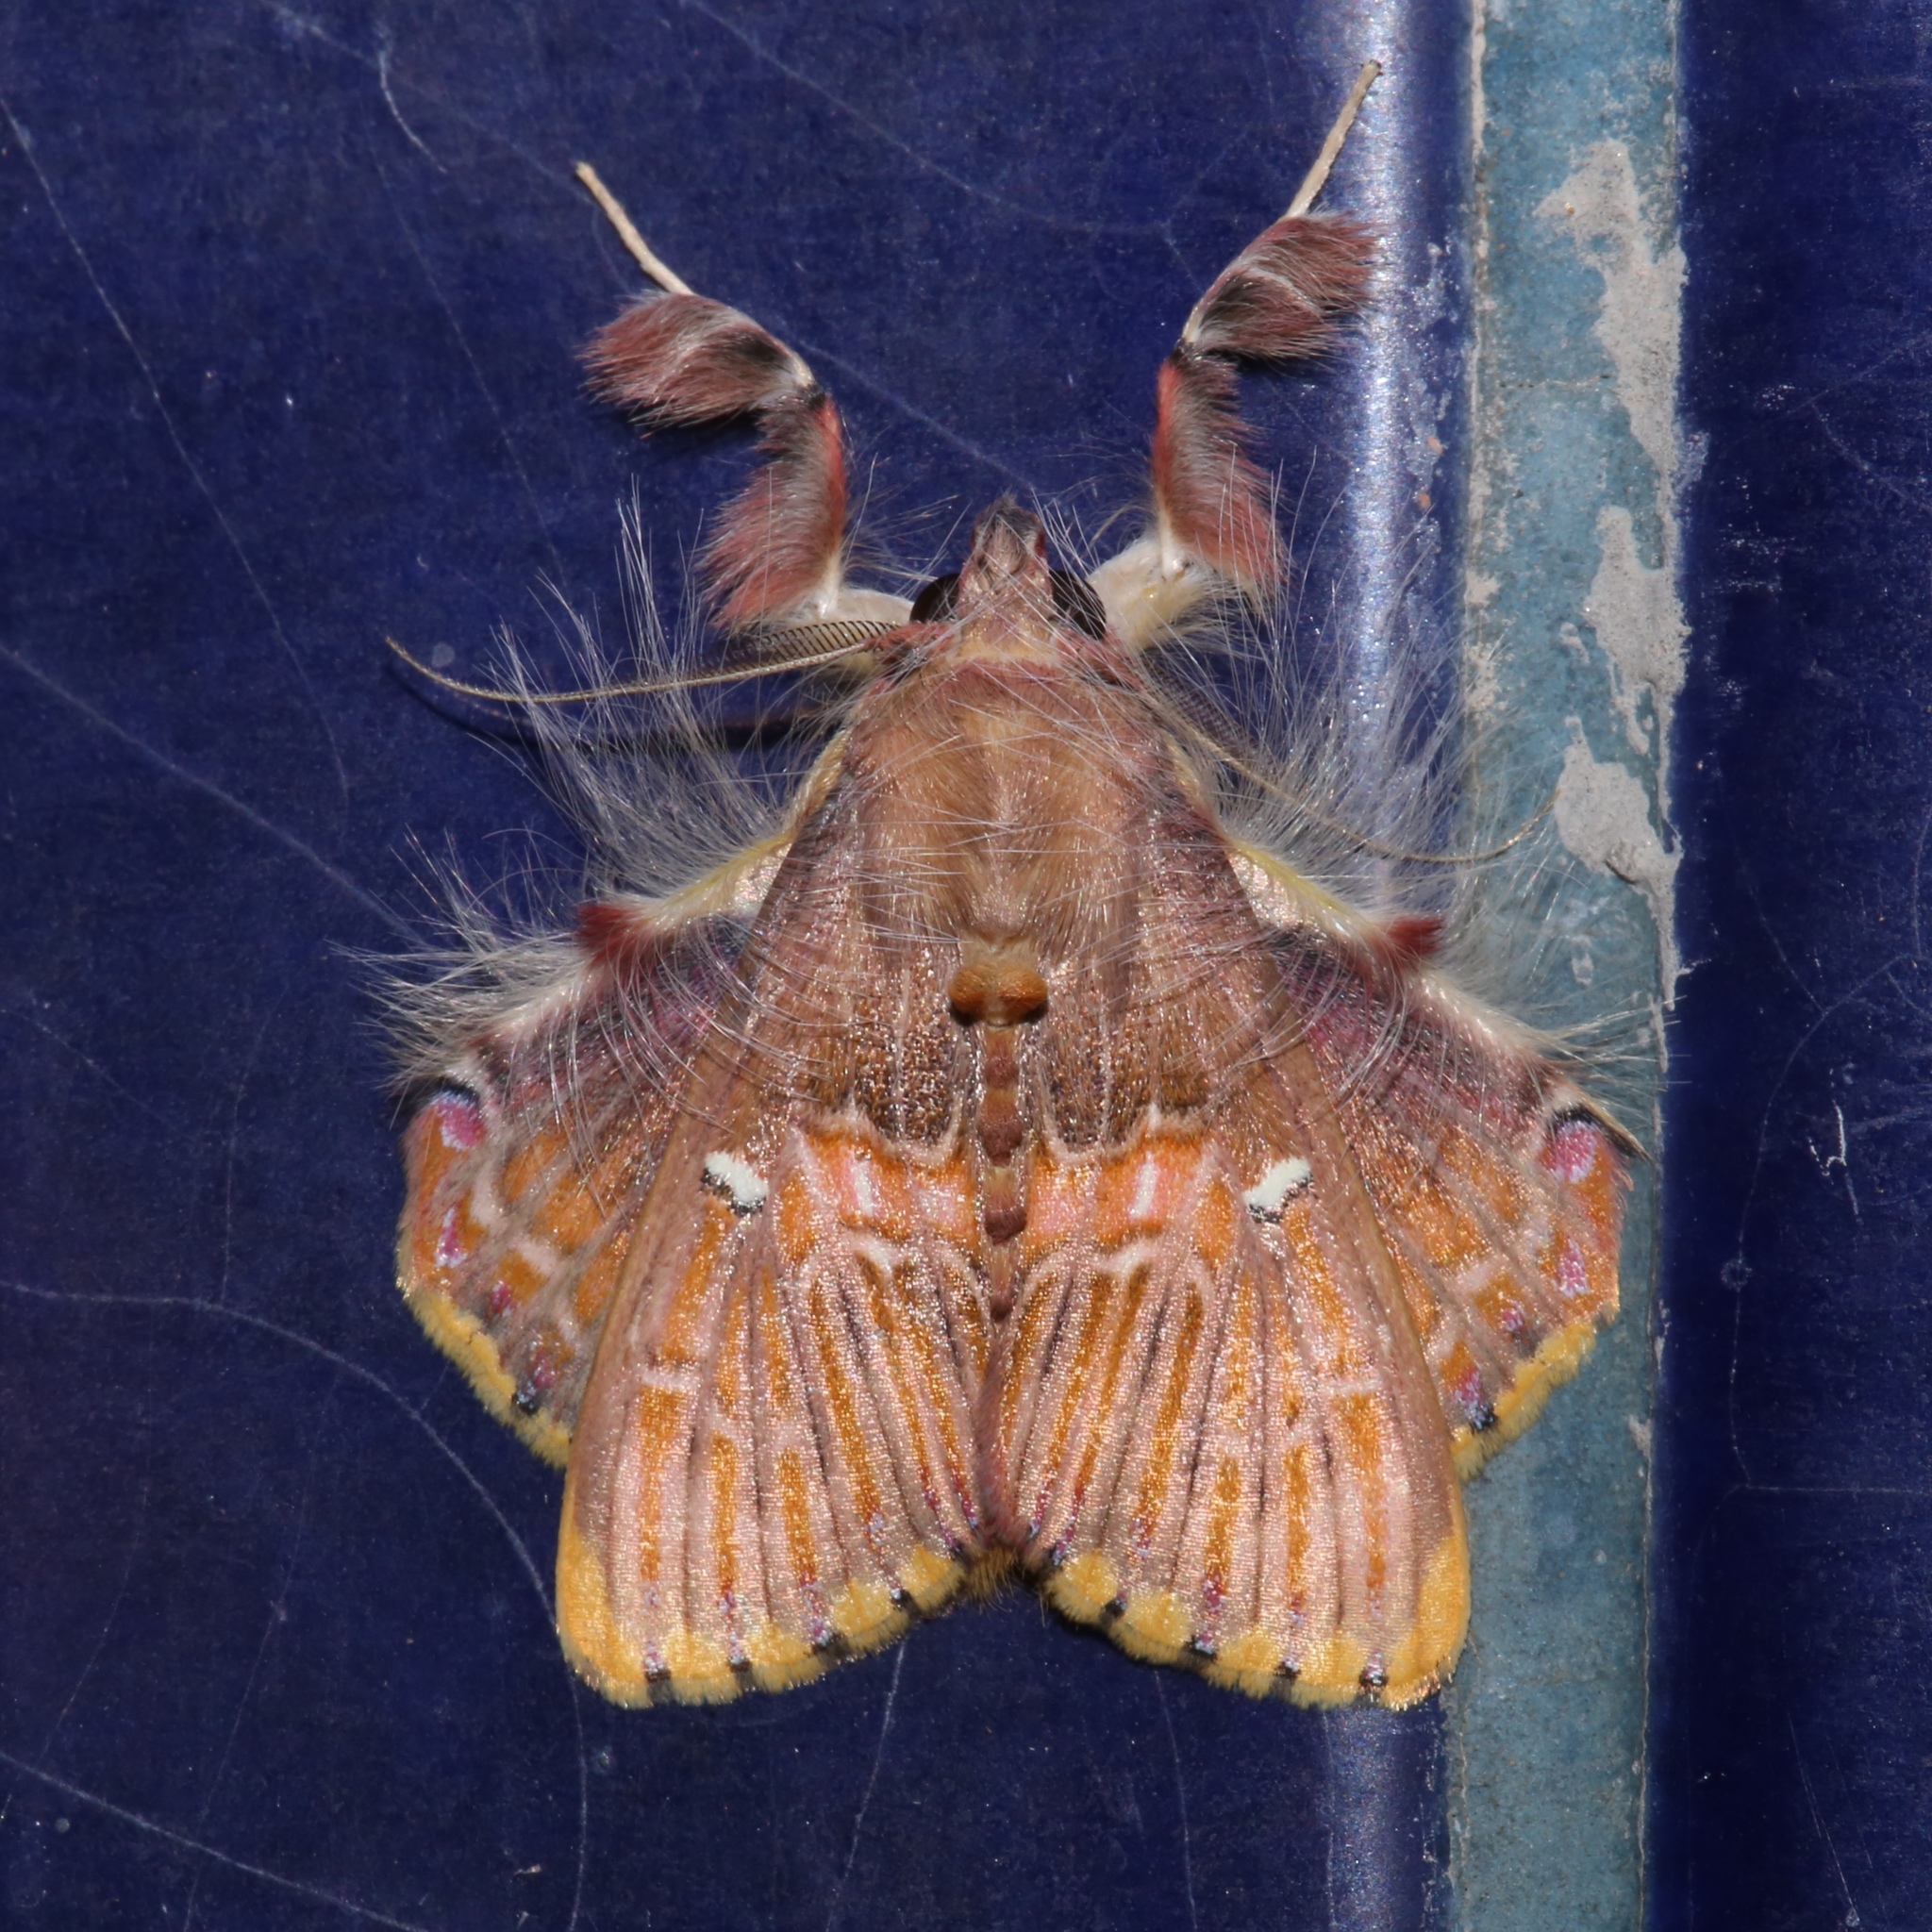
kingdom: Animalia
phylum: Arthropoda
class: Insecta
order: Lepidoptera
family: Erebidae
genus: Sosxetra
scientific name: Sosxetra grata
